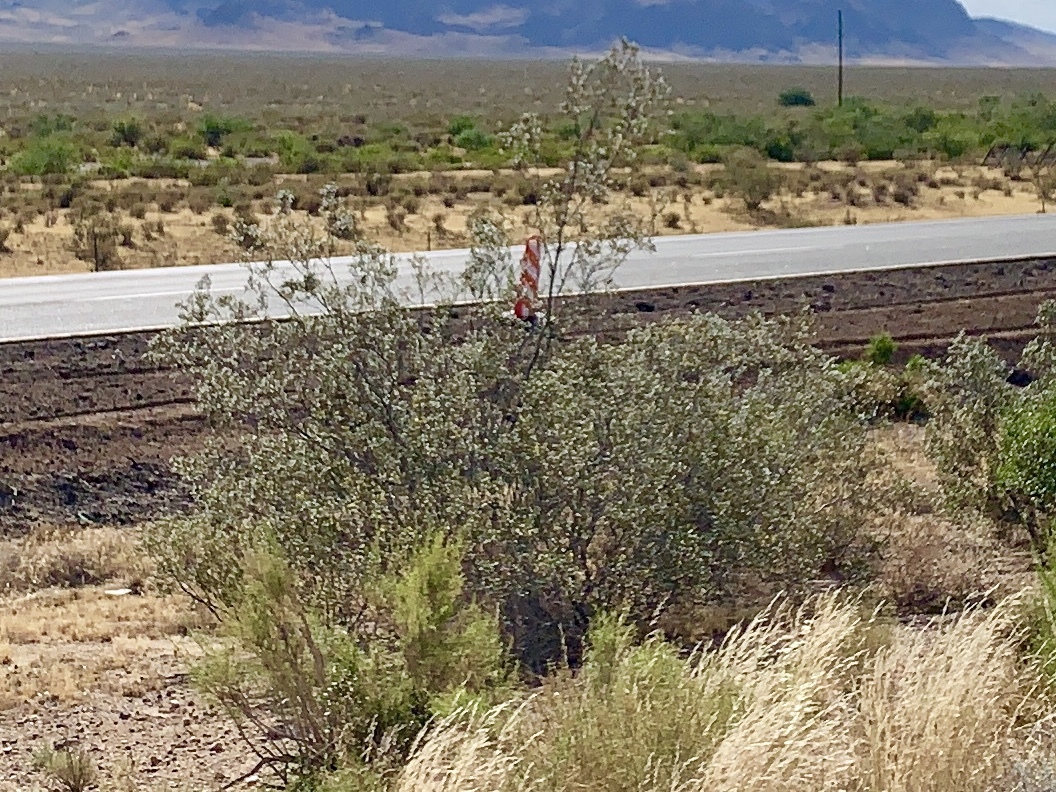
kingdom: Plantae
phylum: Tracheophyta
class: Magnoliopsida
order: Zygophyllales
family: Zygophyllaceae
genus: Larrea
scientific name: Larrea tridentata
